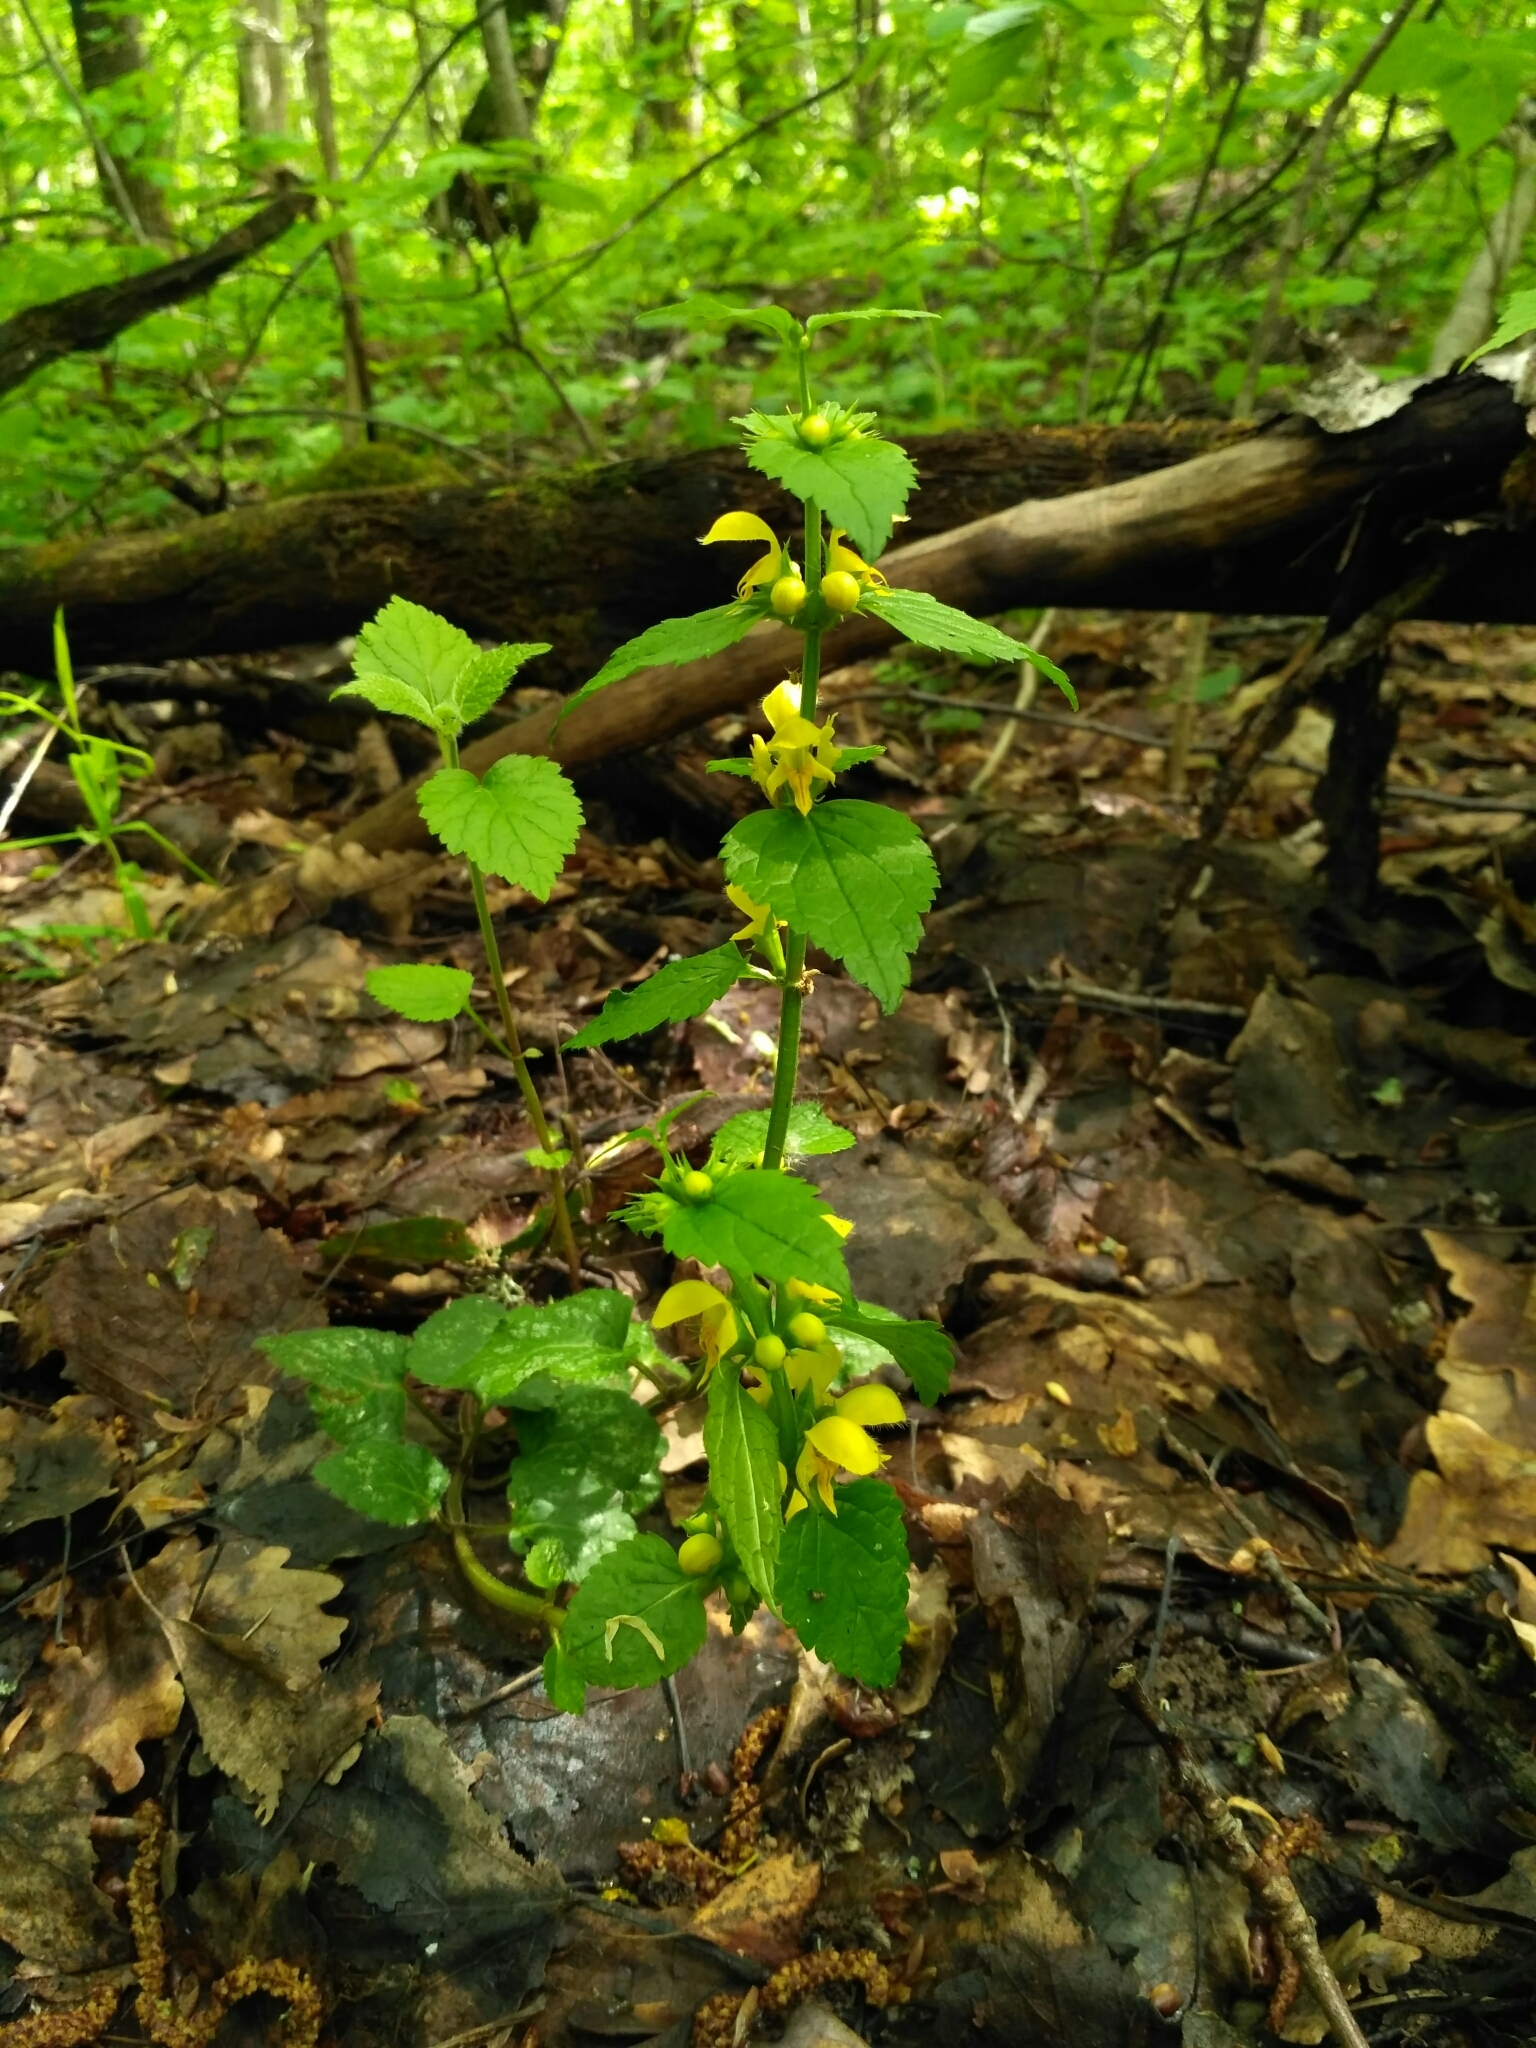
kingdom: Plantae
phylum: Tracheophyta
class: Magnoliopsida
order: Lamiales
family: Lamiaceae
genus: Lamium
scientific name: Lamium galeobdolon
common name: Yellow archangel
